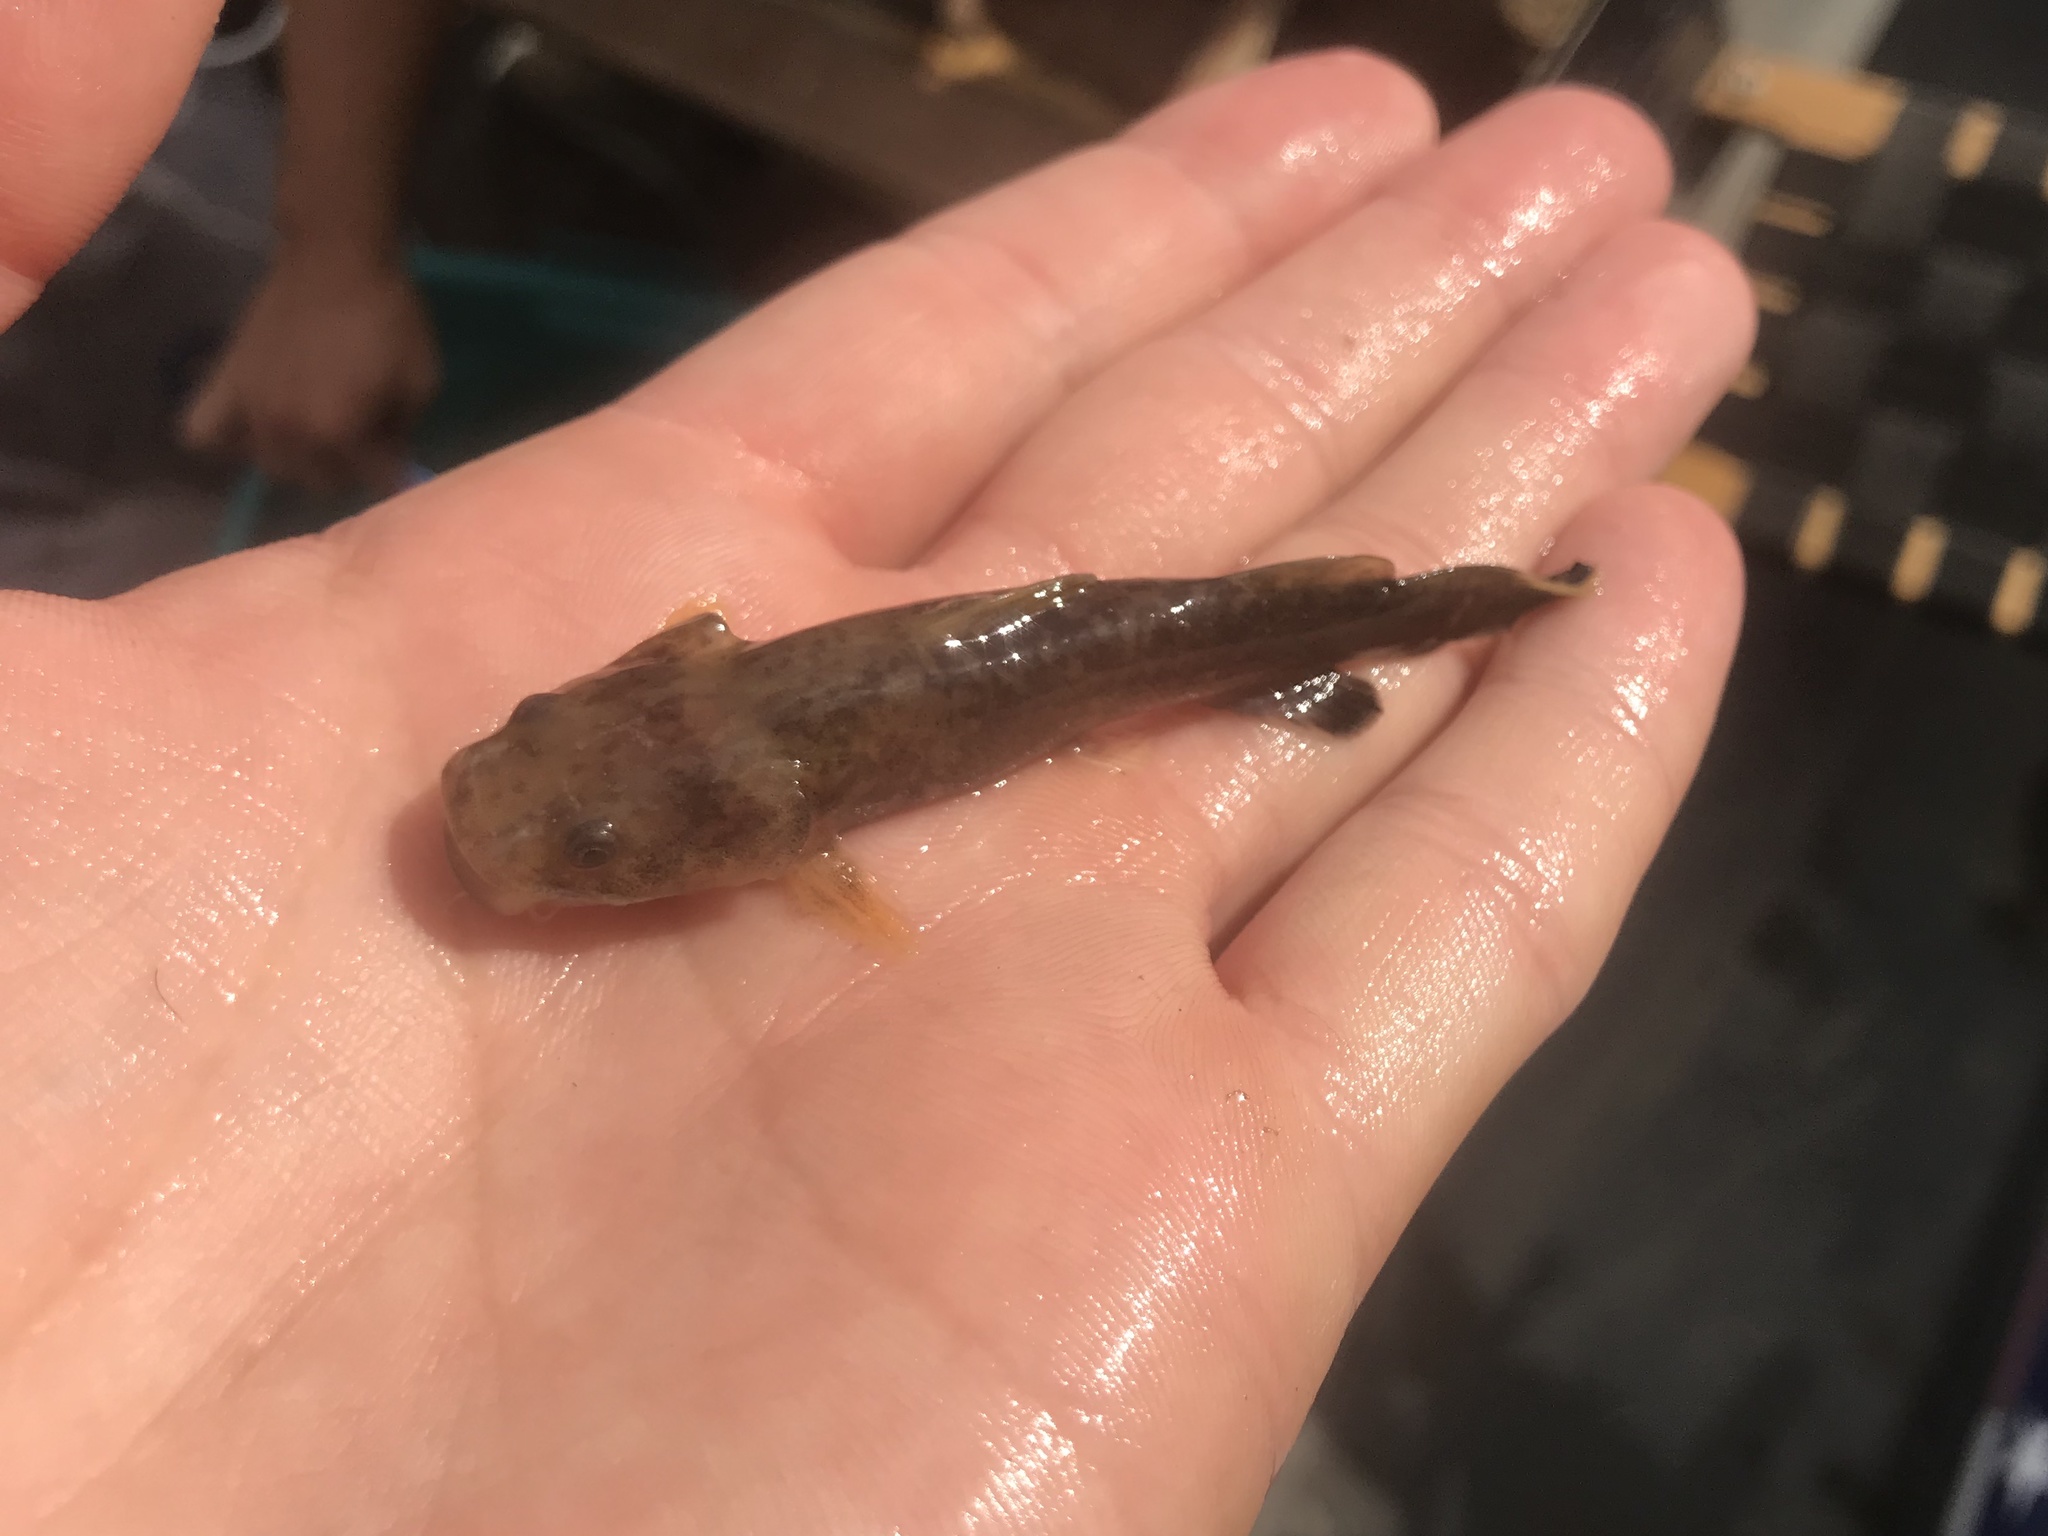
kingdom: Animalia
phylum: Chordata
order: Siluriformes
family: Ictaluridae
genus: Pylodictis
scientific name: Pylodictis olivaris
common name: Flathead catfish
